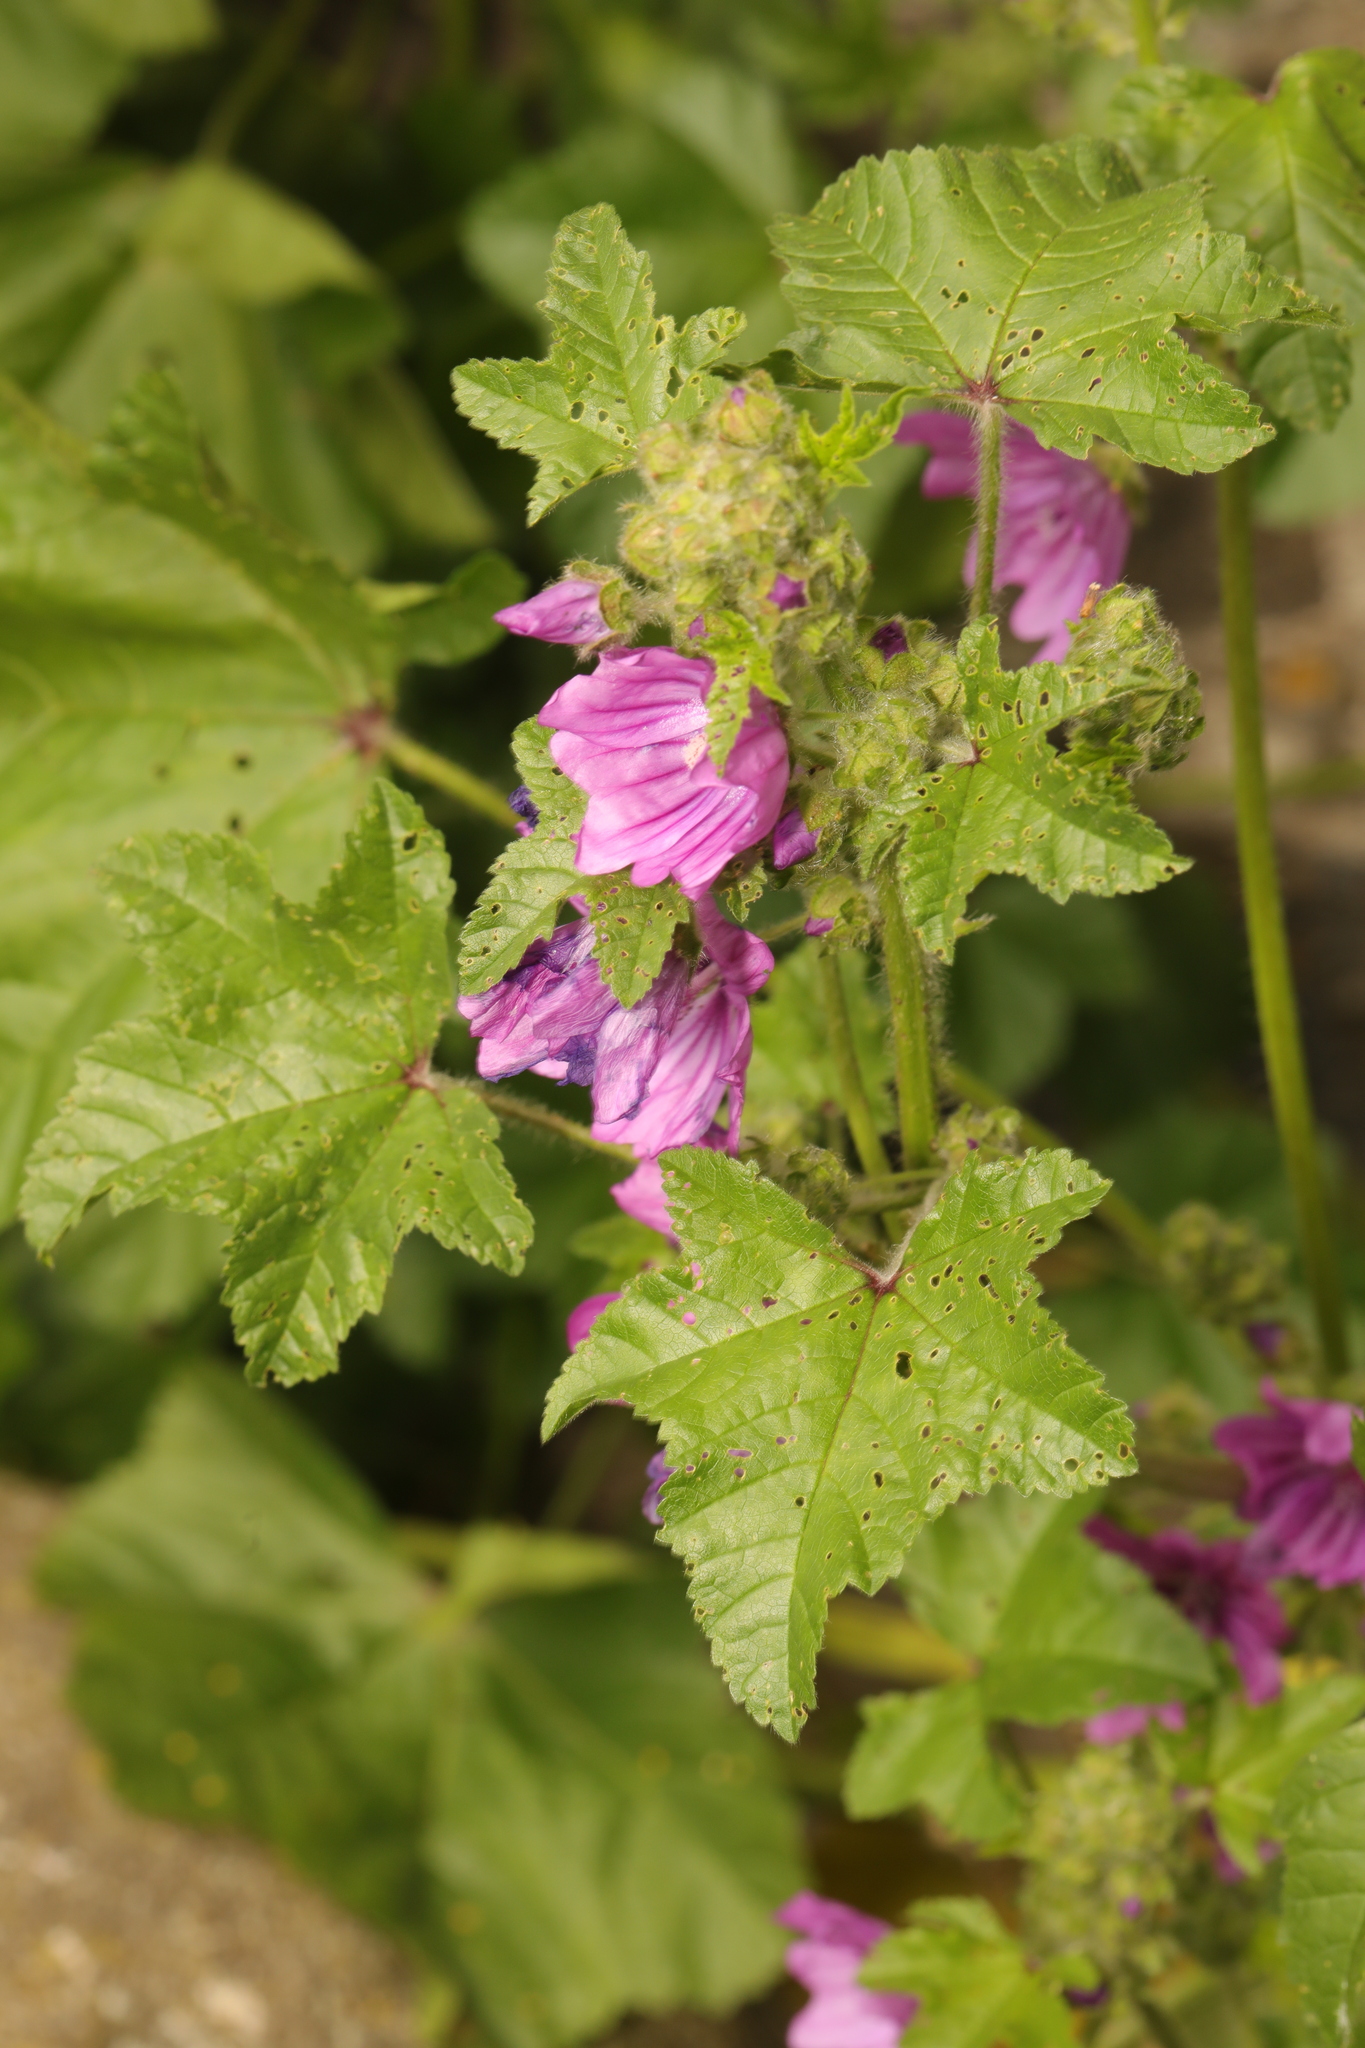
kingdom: Plantae
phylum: Tracheophyta
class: Magnoliopsida
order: Malvales
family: Malvaceae
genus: Malva
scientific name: Malva sylvestris
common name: Common mallow
